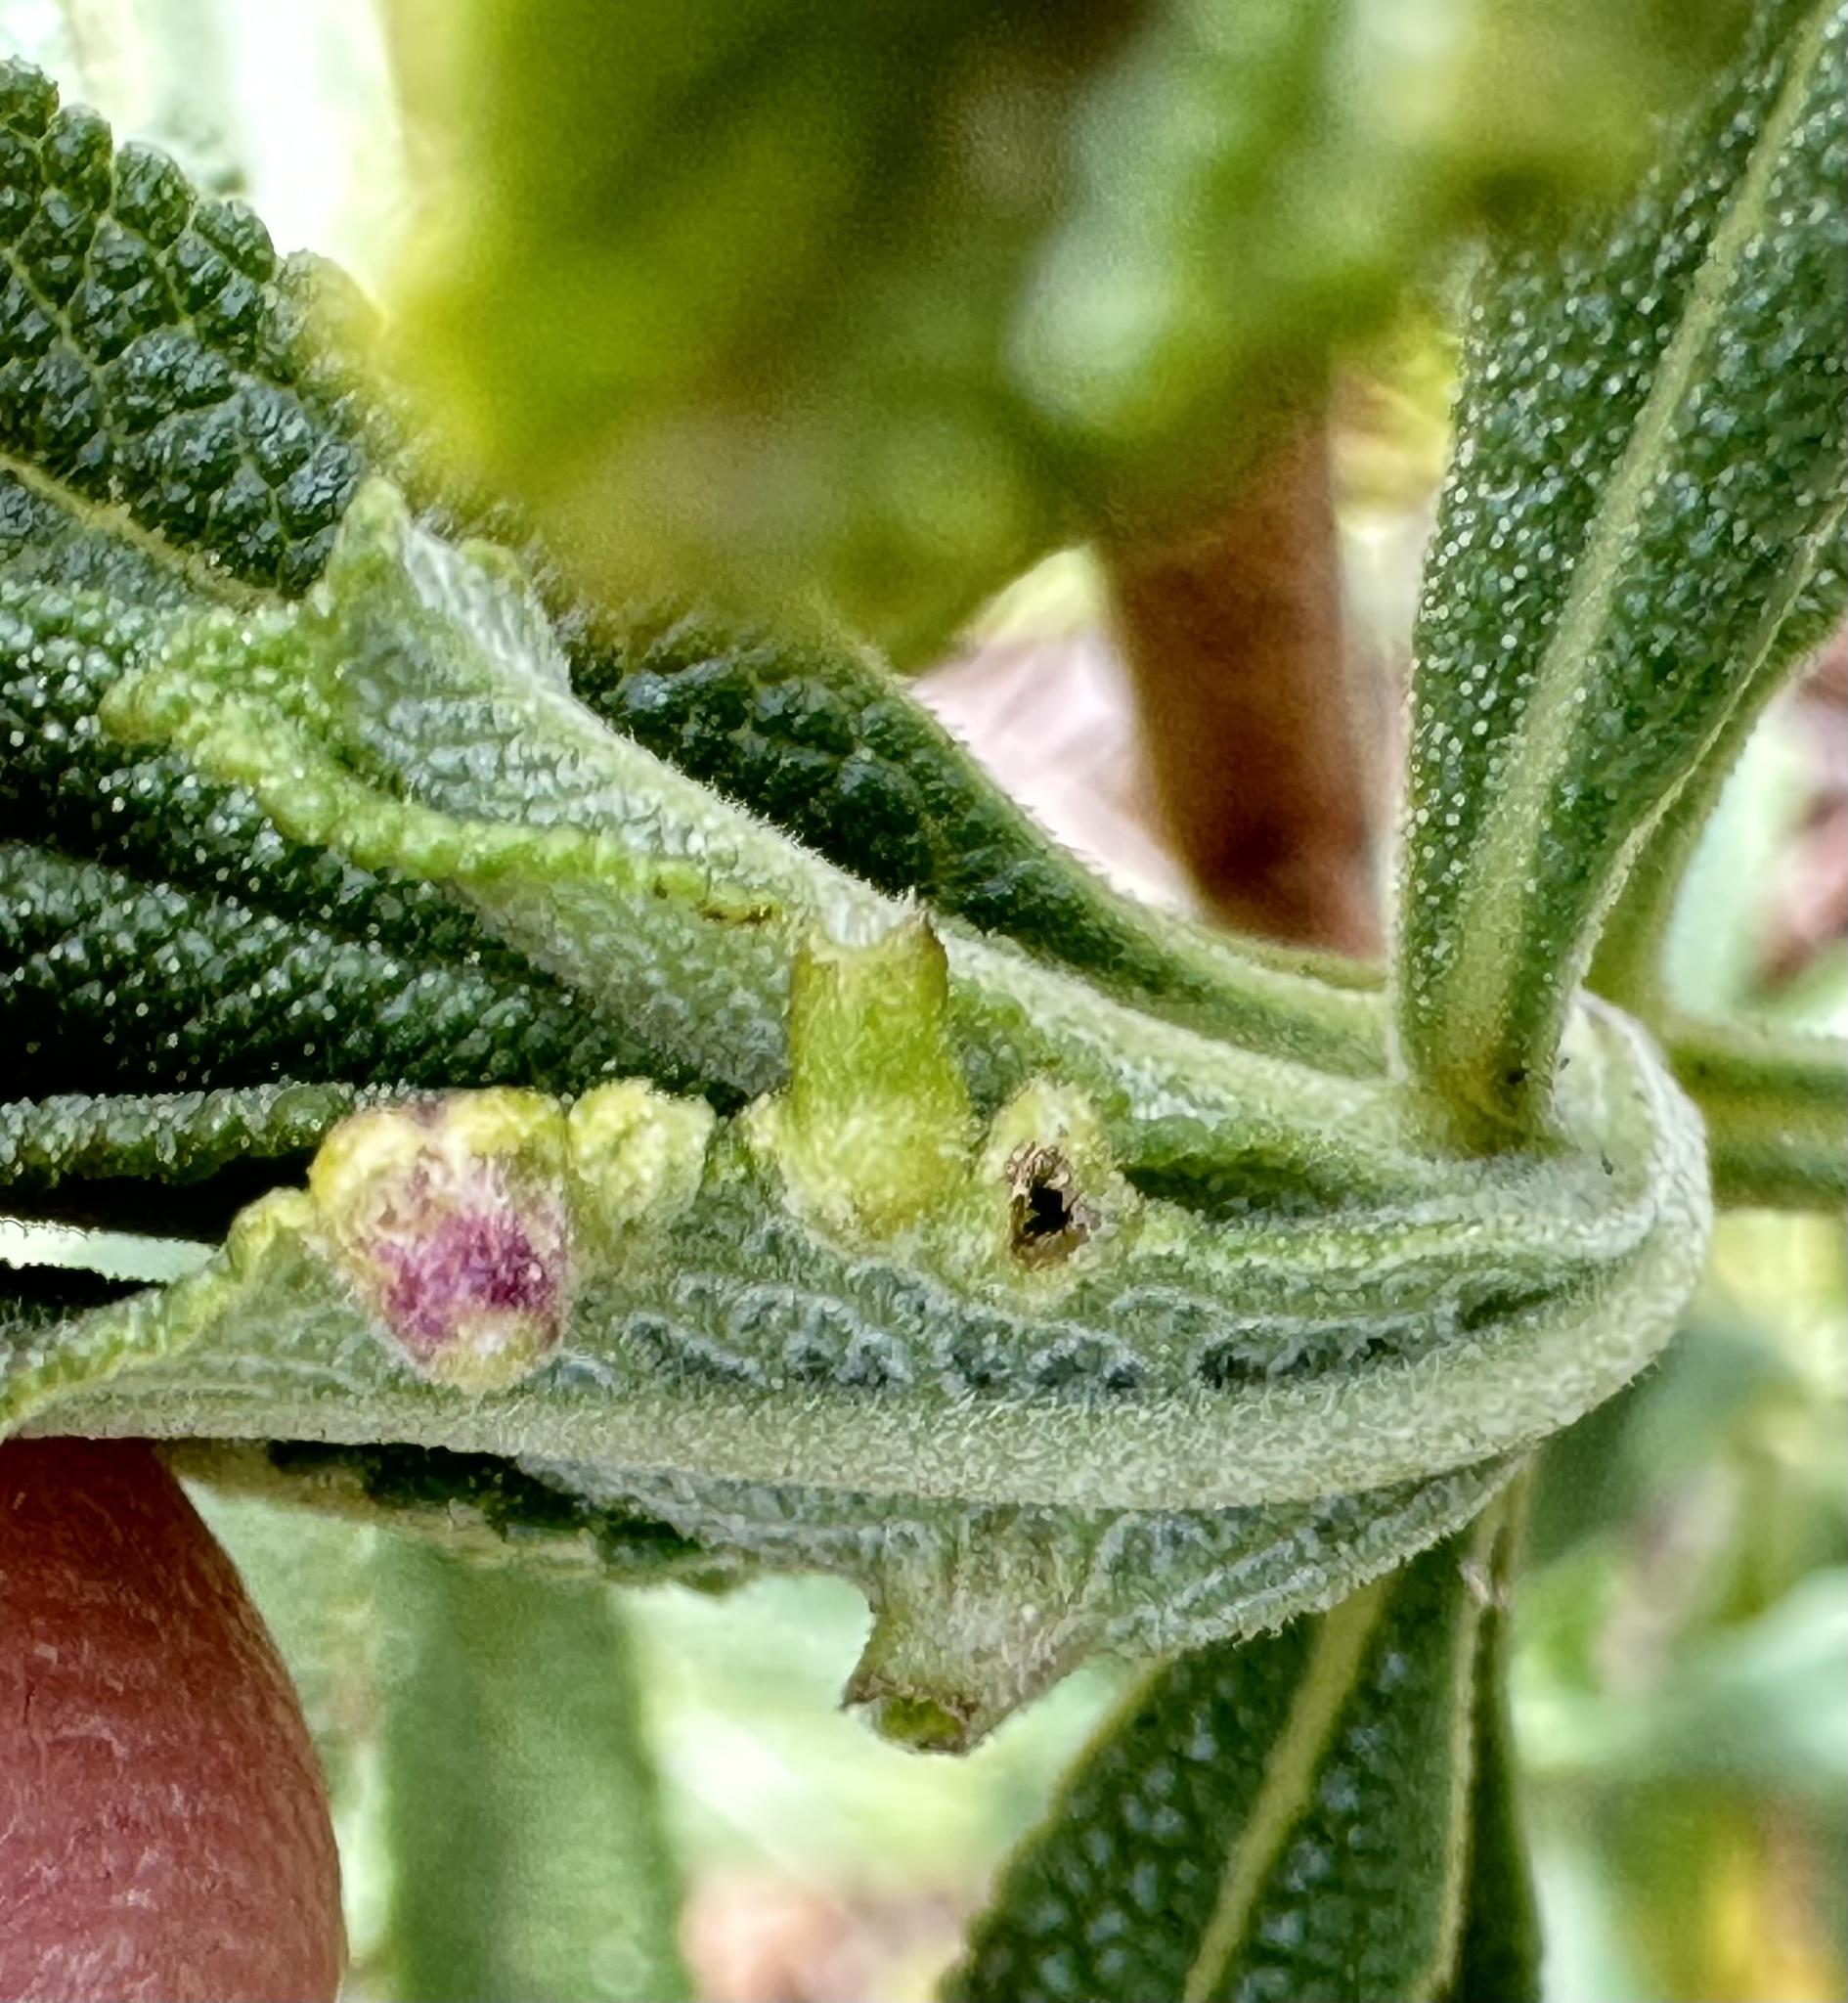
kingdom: Animalia
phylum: Arthropoda
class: Insecta
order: Diptera
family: Cecidomyiidae
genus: Rhopalomyia
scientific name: Rhopalomyia audibertiae
